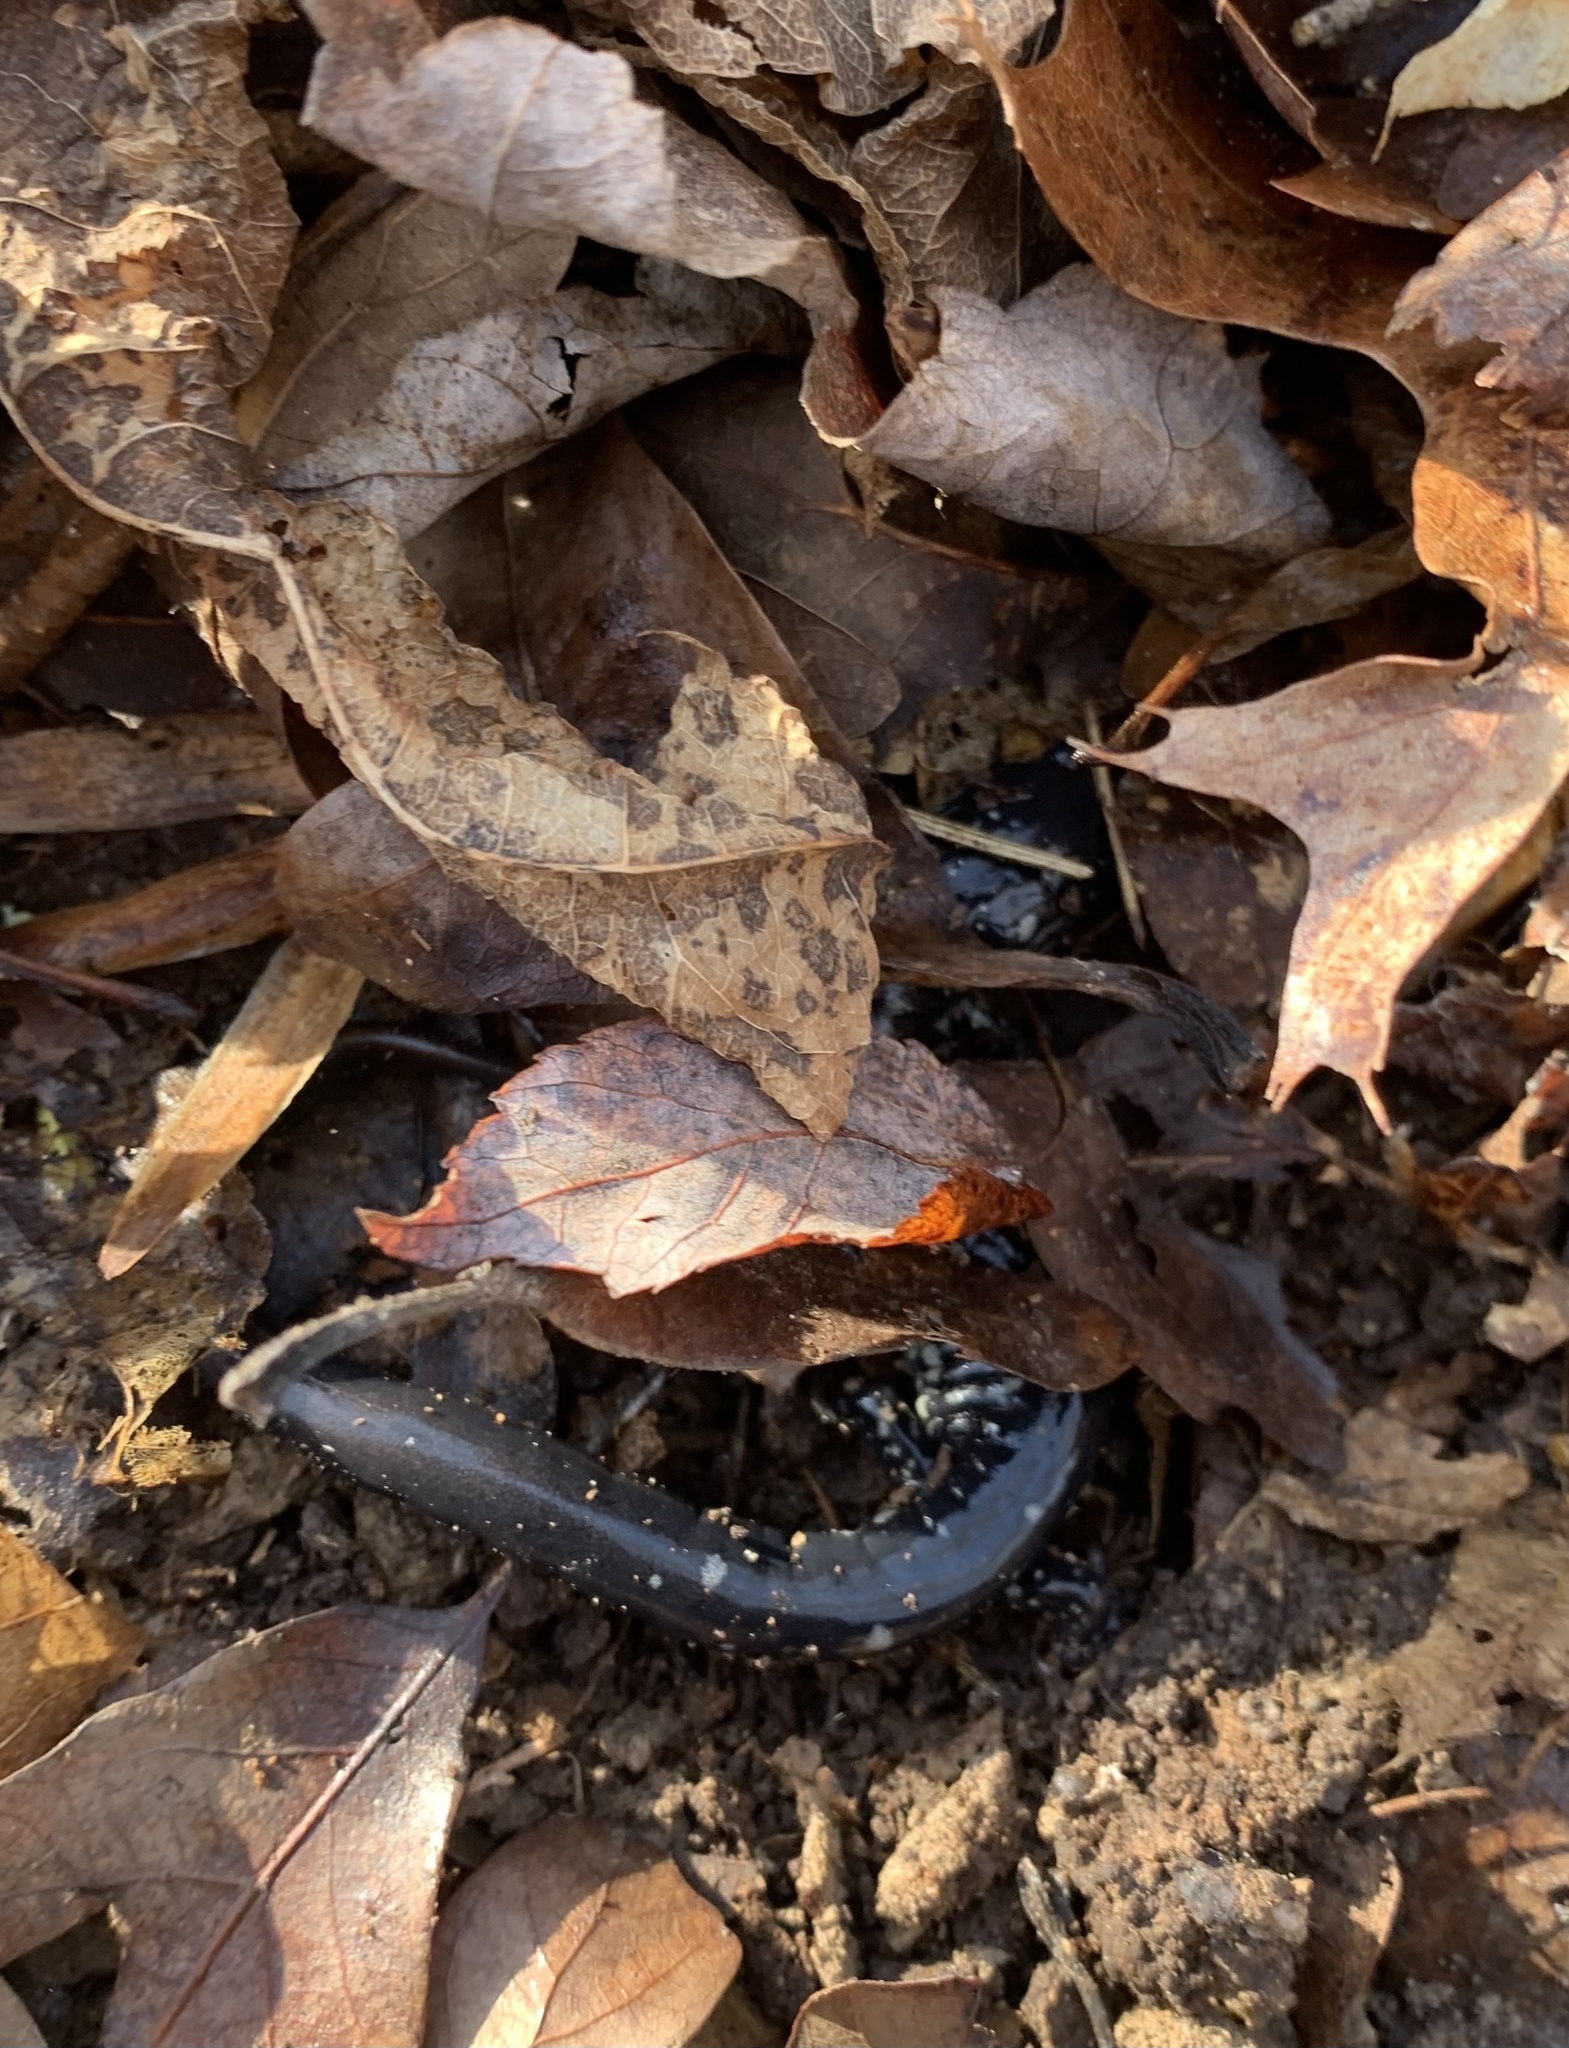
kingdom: Animalia
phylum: Chordata
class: Amphibia
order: Caudata
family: Plethodontidae
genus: Plethodon
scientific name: Plethodon cylindraceus
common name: White-spotted slimy salamander
